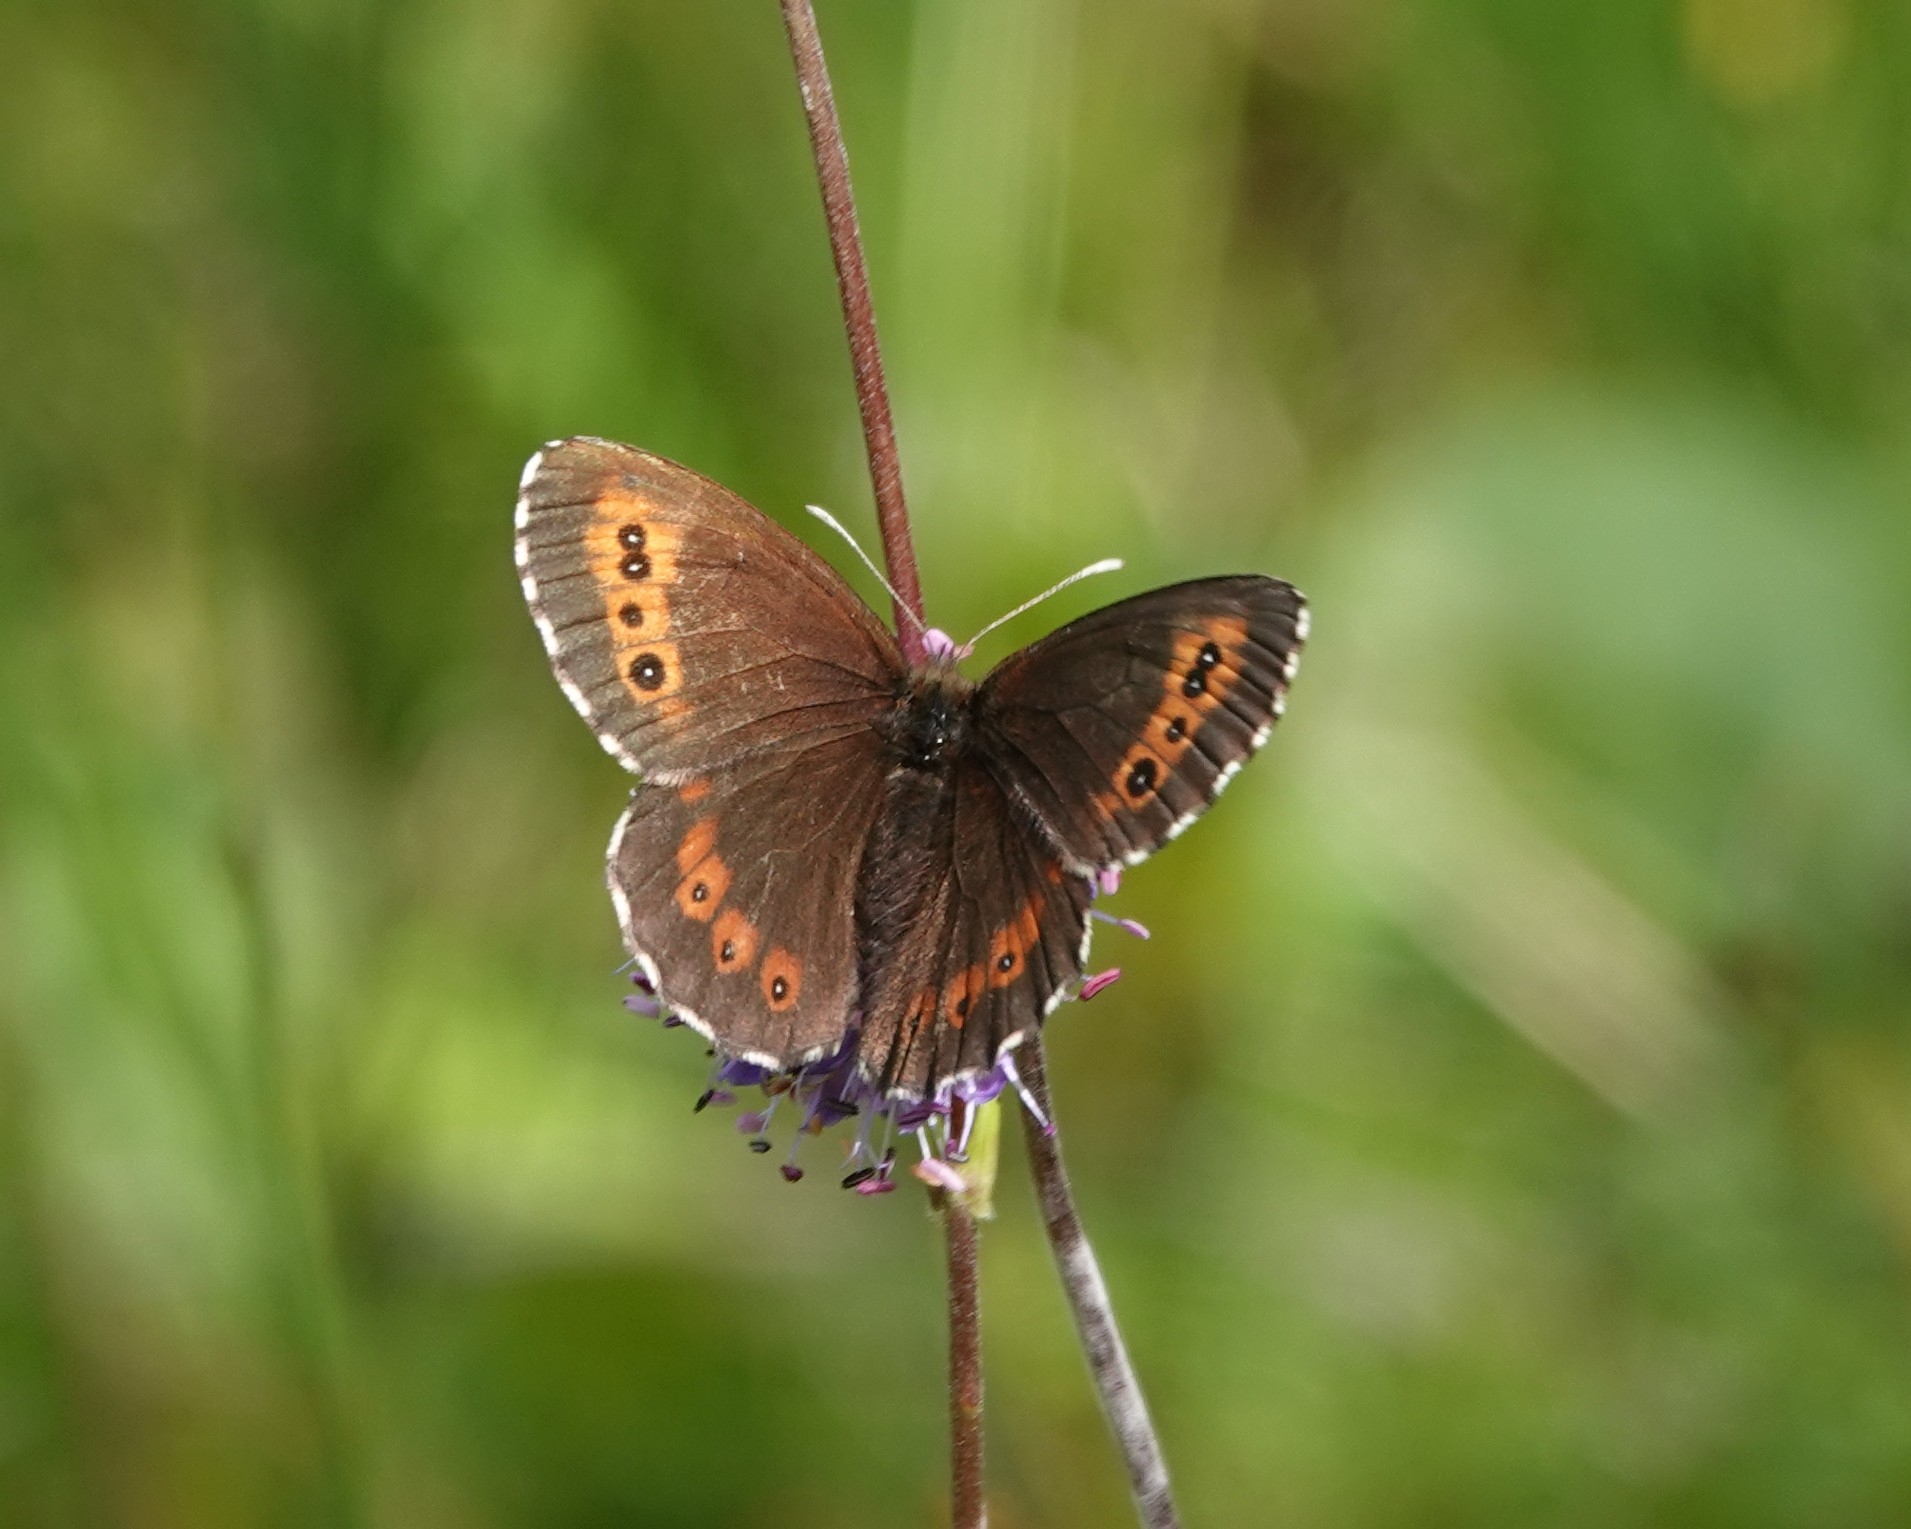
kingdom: Animalia
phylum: Arthropoda
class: Insecta
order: Lepidoptera
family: Nymphalidae
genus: Erebia
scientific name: Erebia ligea
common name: Arran brown
